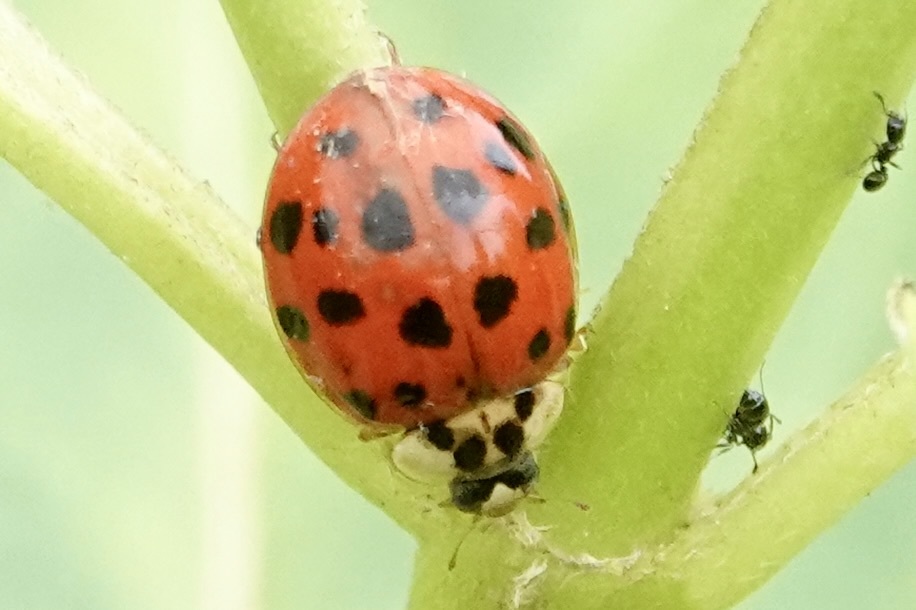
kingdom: Animalia
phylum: Arthropoda
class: Insecta
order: Coleoptera
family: Coccinellidae
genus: Harmonia
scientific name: Harmonia axyridis
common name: Harlequin ladybird
